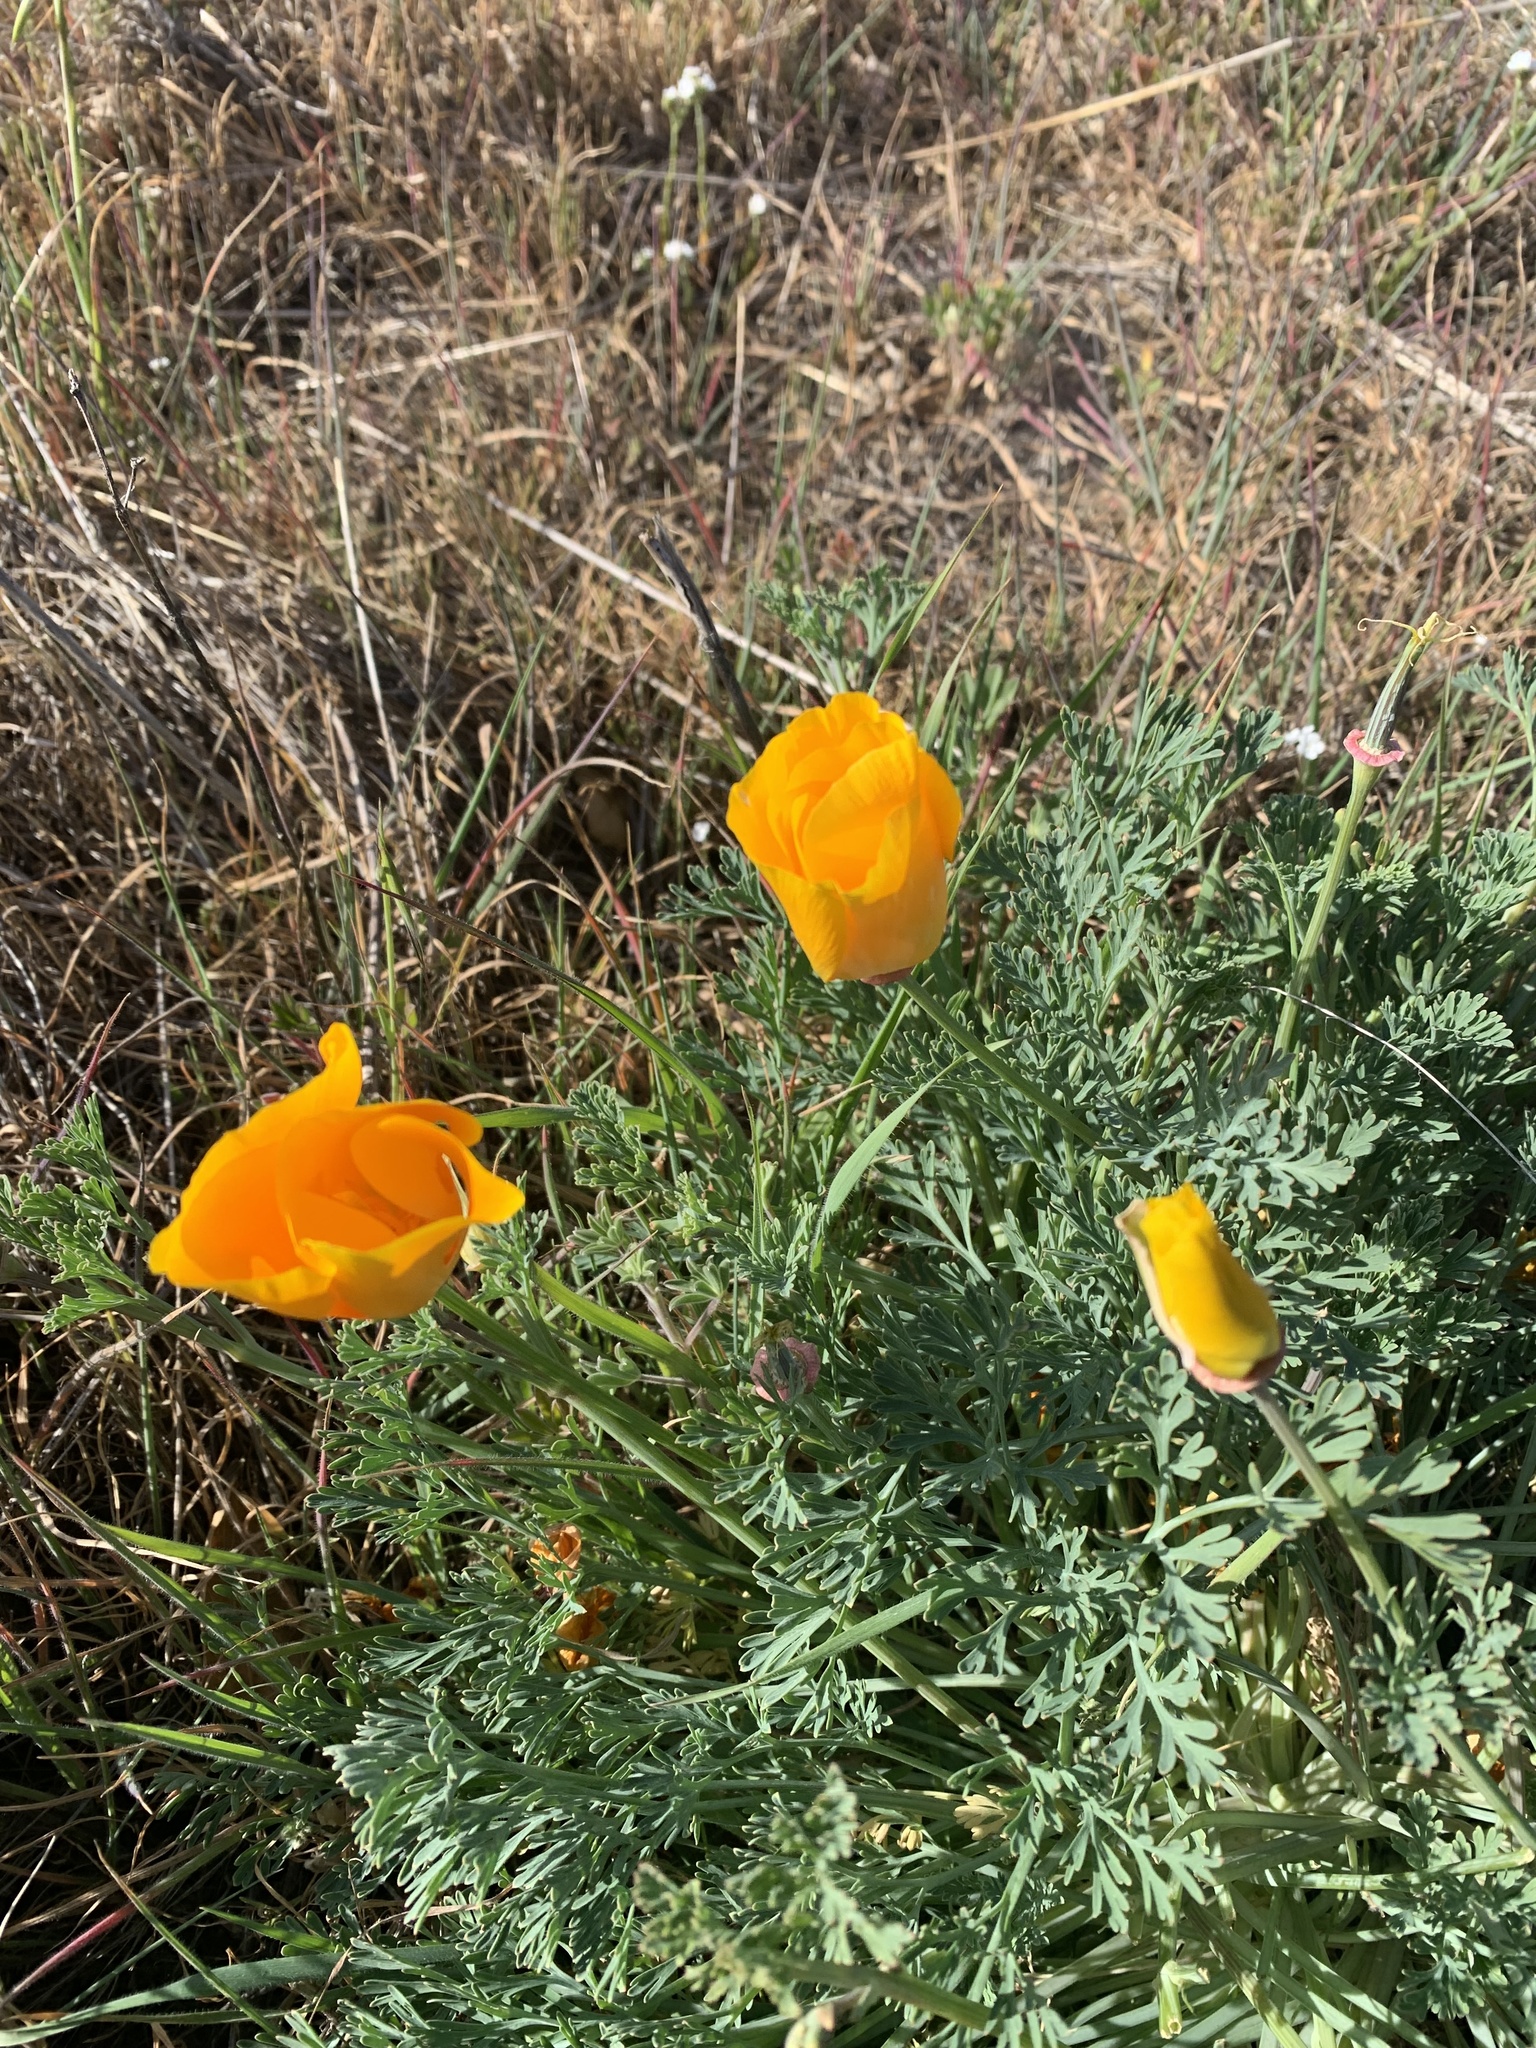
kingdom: Plantae
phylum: Tracheophyta
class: Magnoliopsida
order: Ranunculales
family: Papaveraceae
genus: Eschscholzia
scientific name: Eschscholzia californica
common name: California poppy
